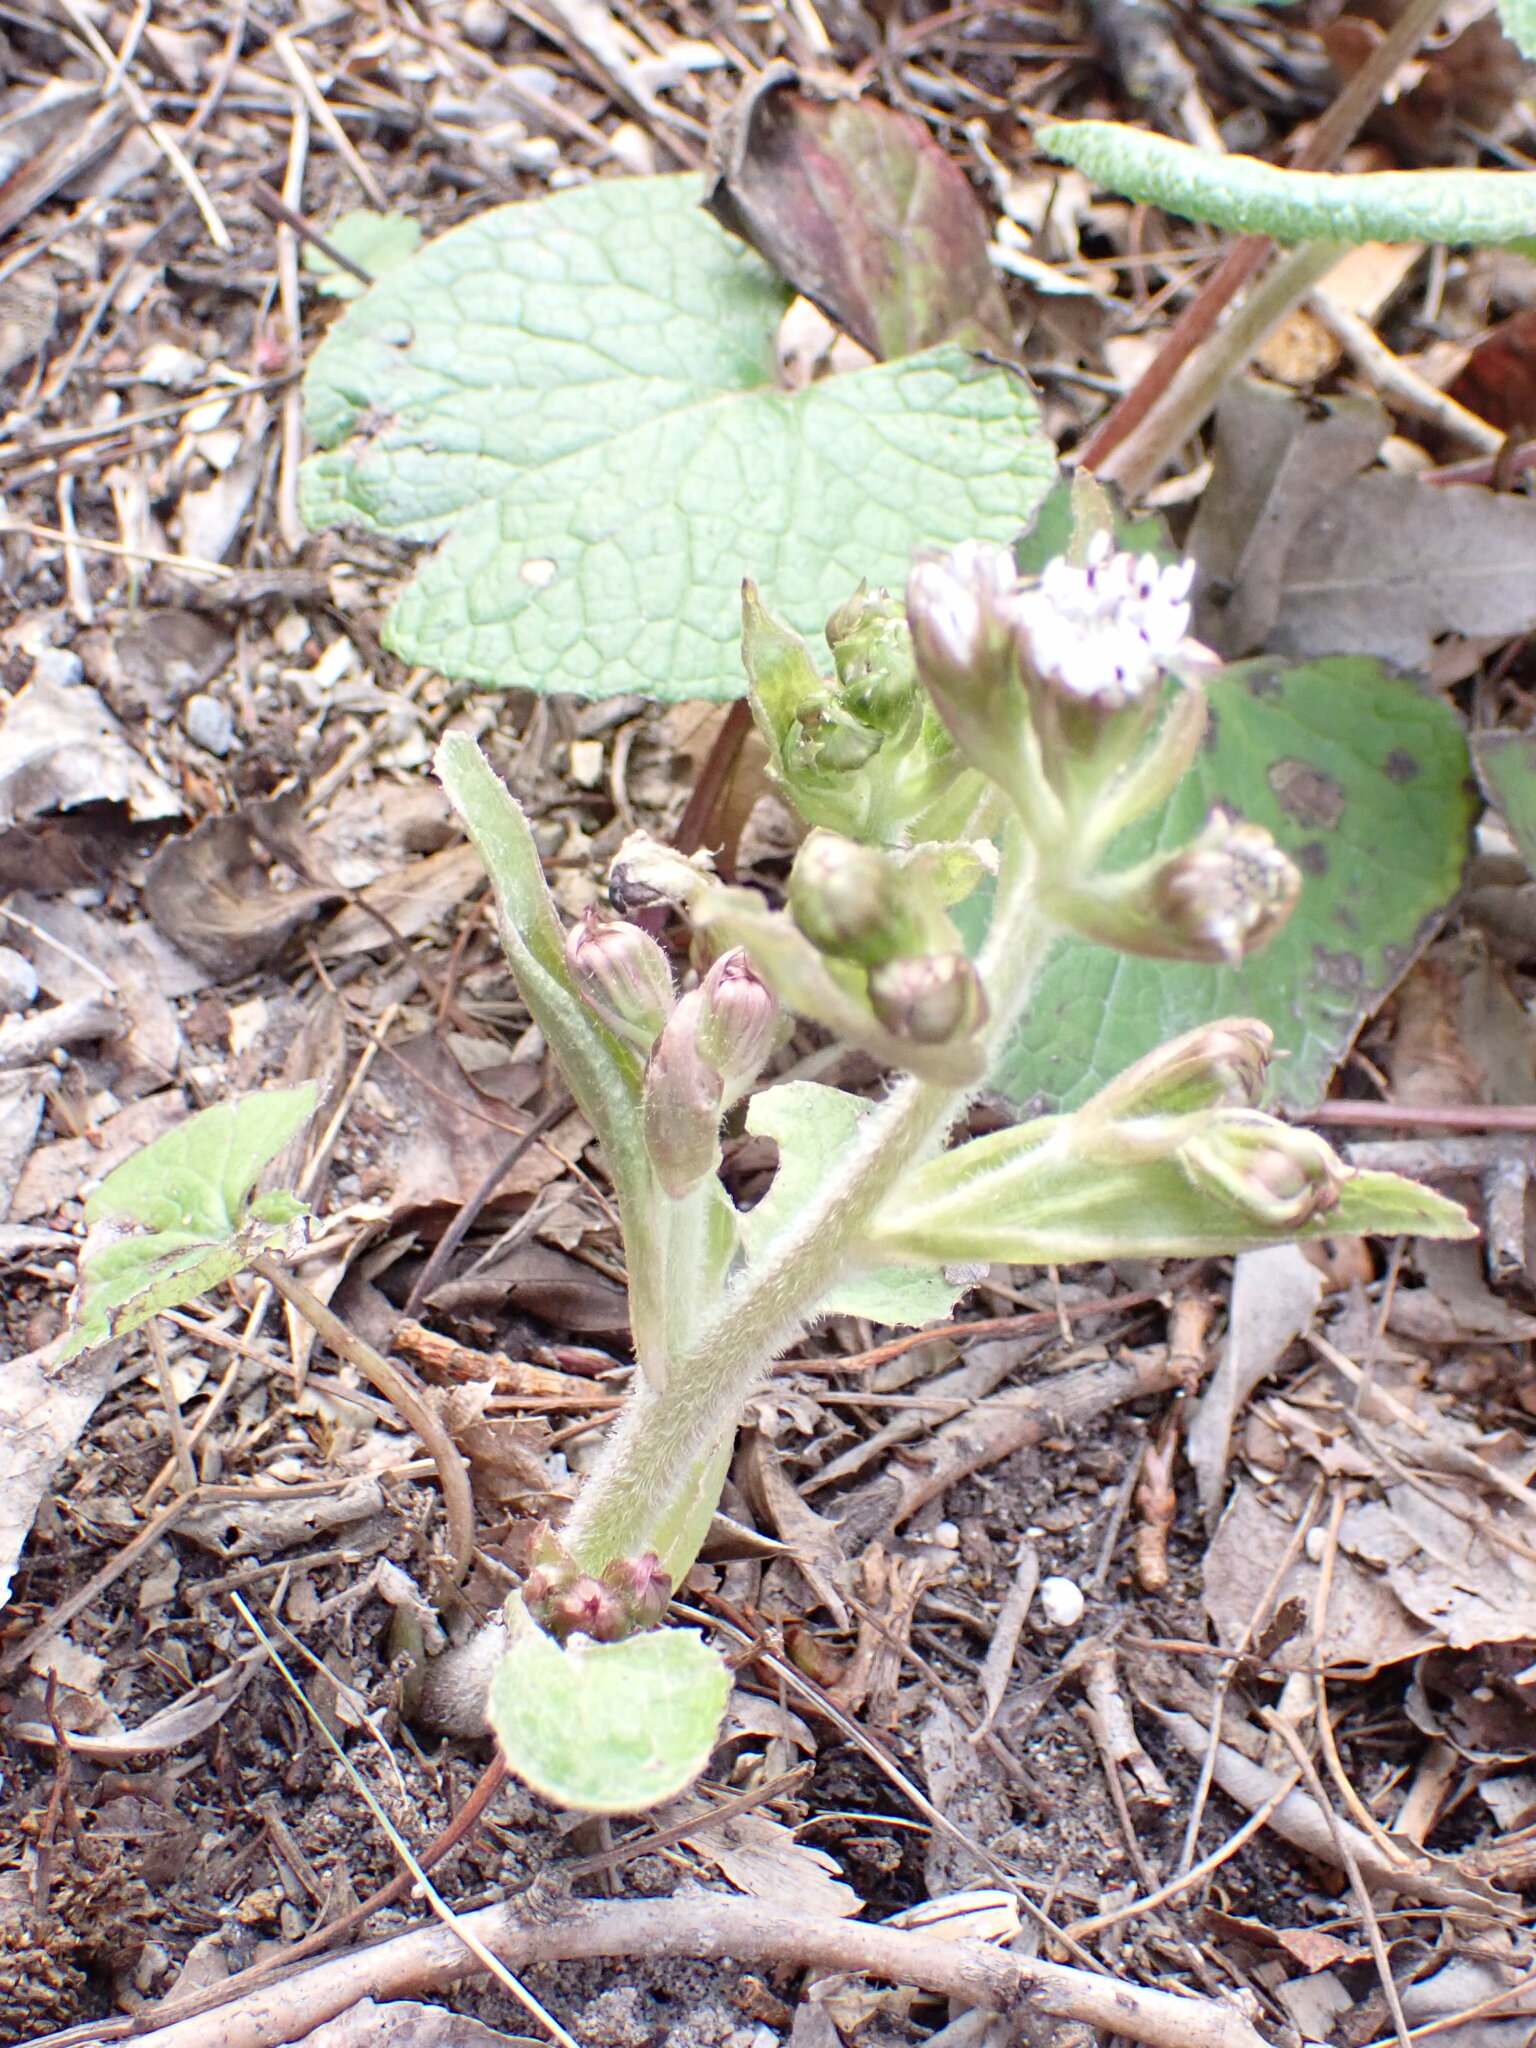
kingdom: Plantae
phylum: Tracheophyta
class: Magnoliopsida
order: Asterales
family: Asteraceae
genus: Petasites
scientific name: Petasites pyrenaicus
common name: Winter heliotrope
